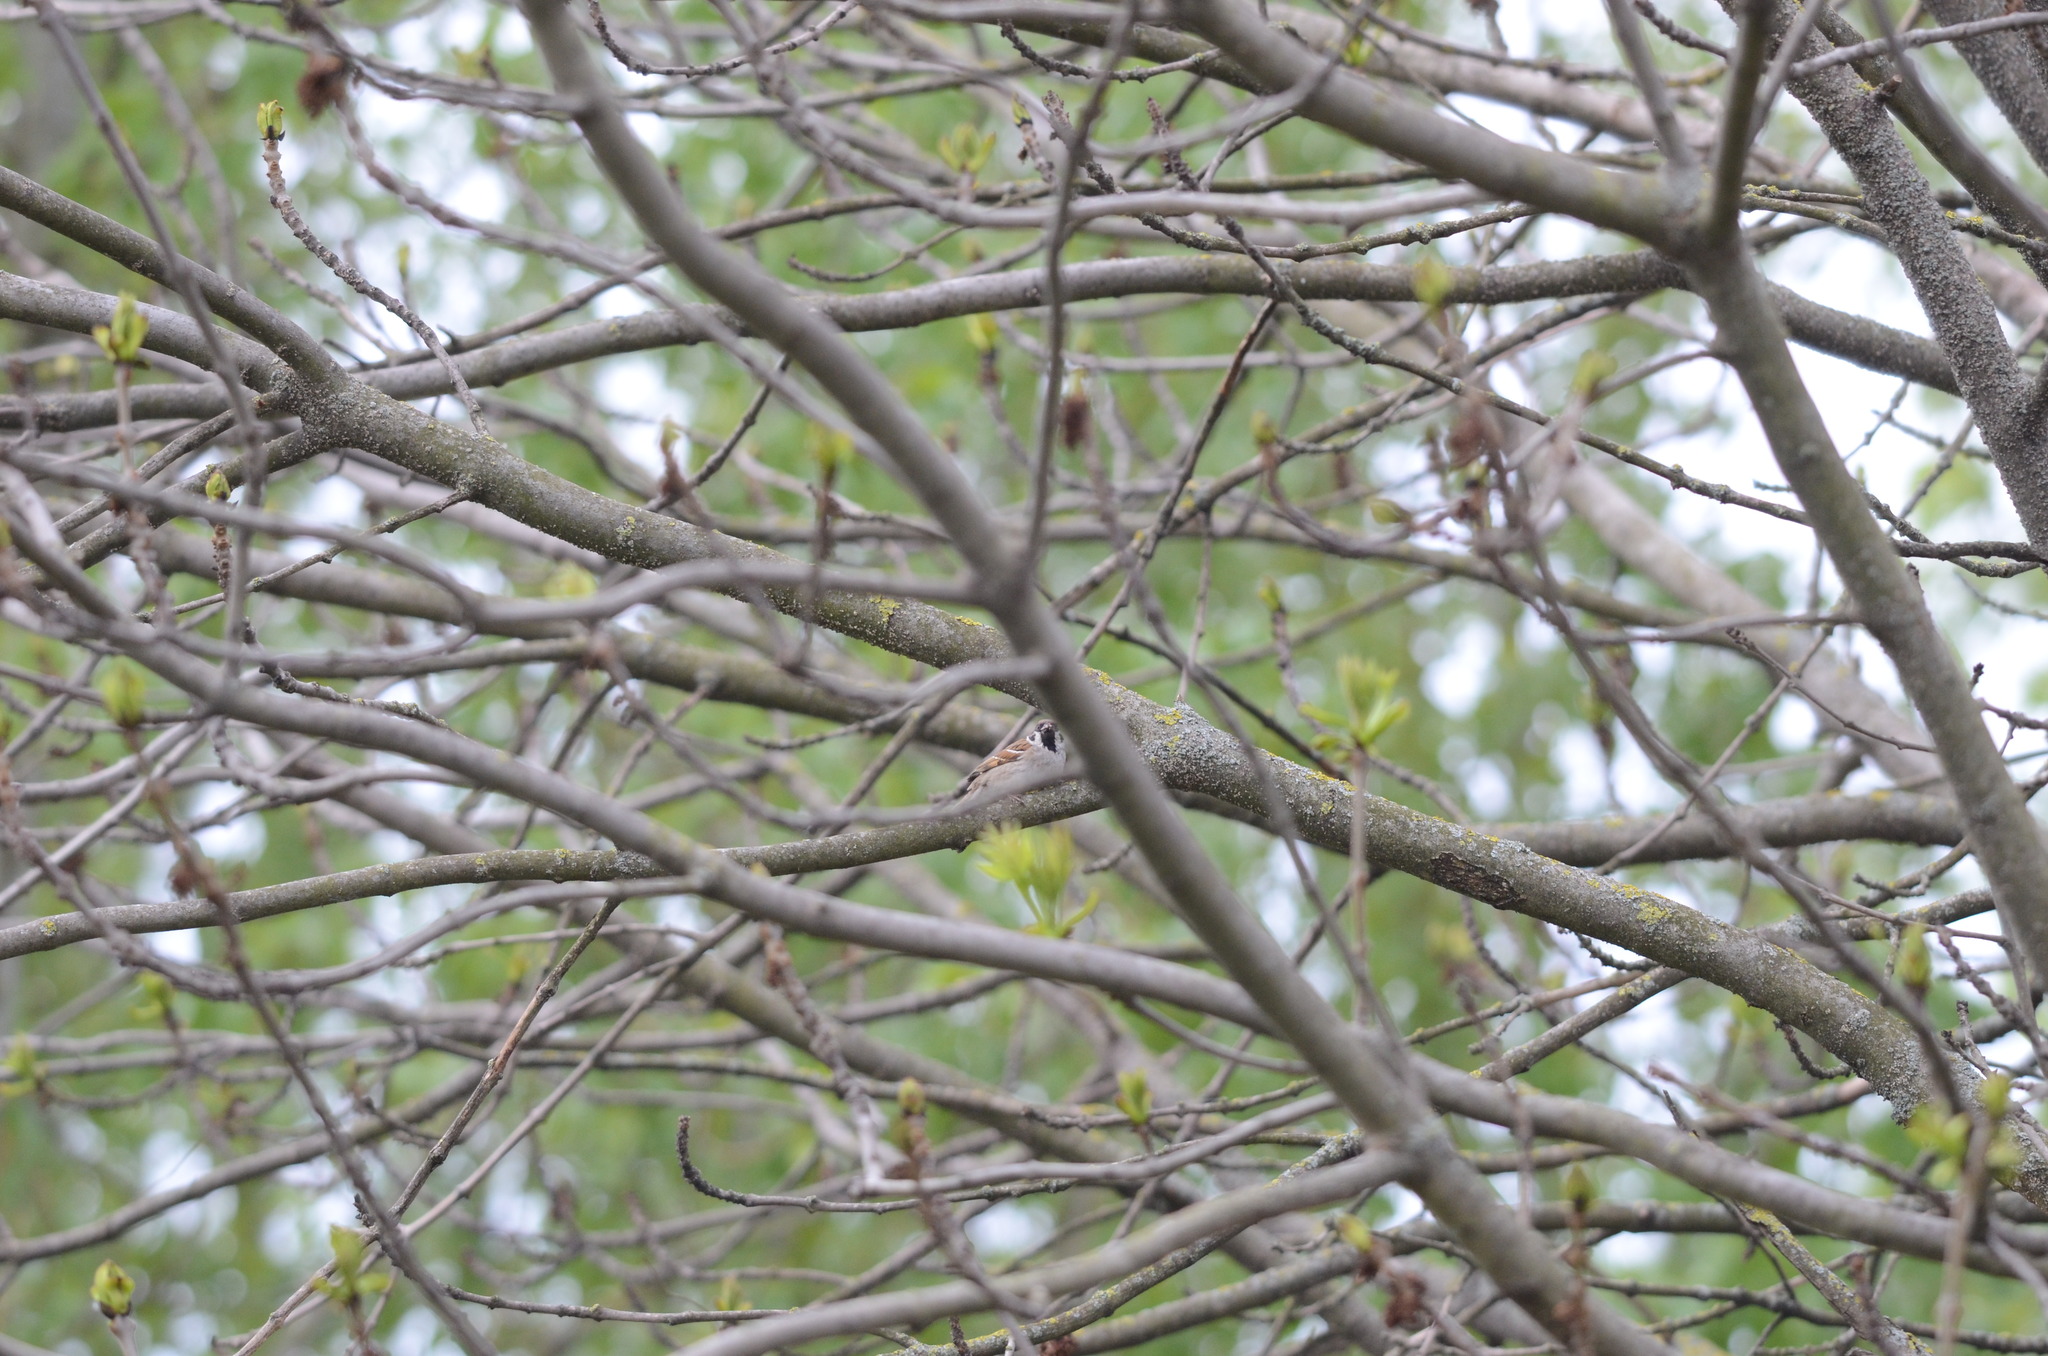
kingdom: Animalia
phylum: Chordata
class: Aves
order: Passeriformes
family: Passeridae
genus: Passer
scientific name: Passer montanus
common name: Eurasian tree sparrow
